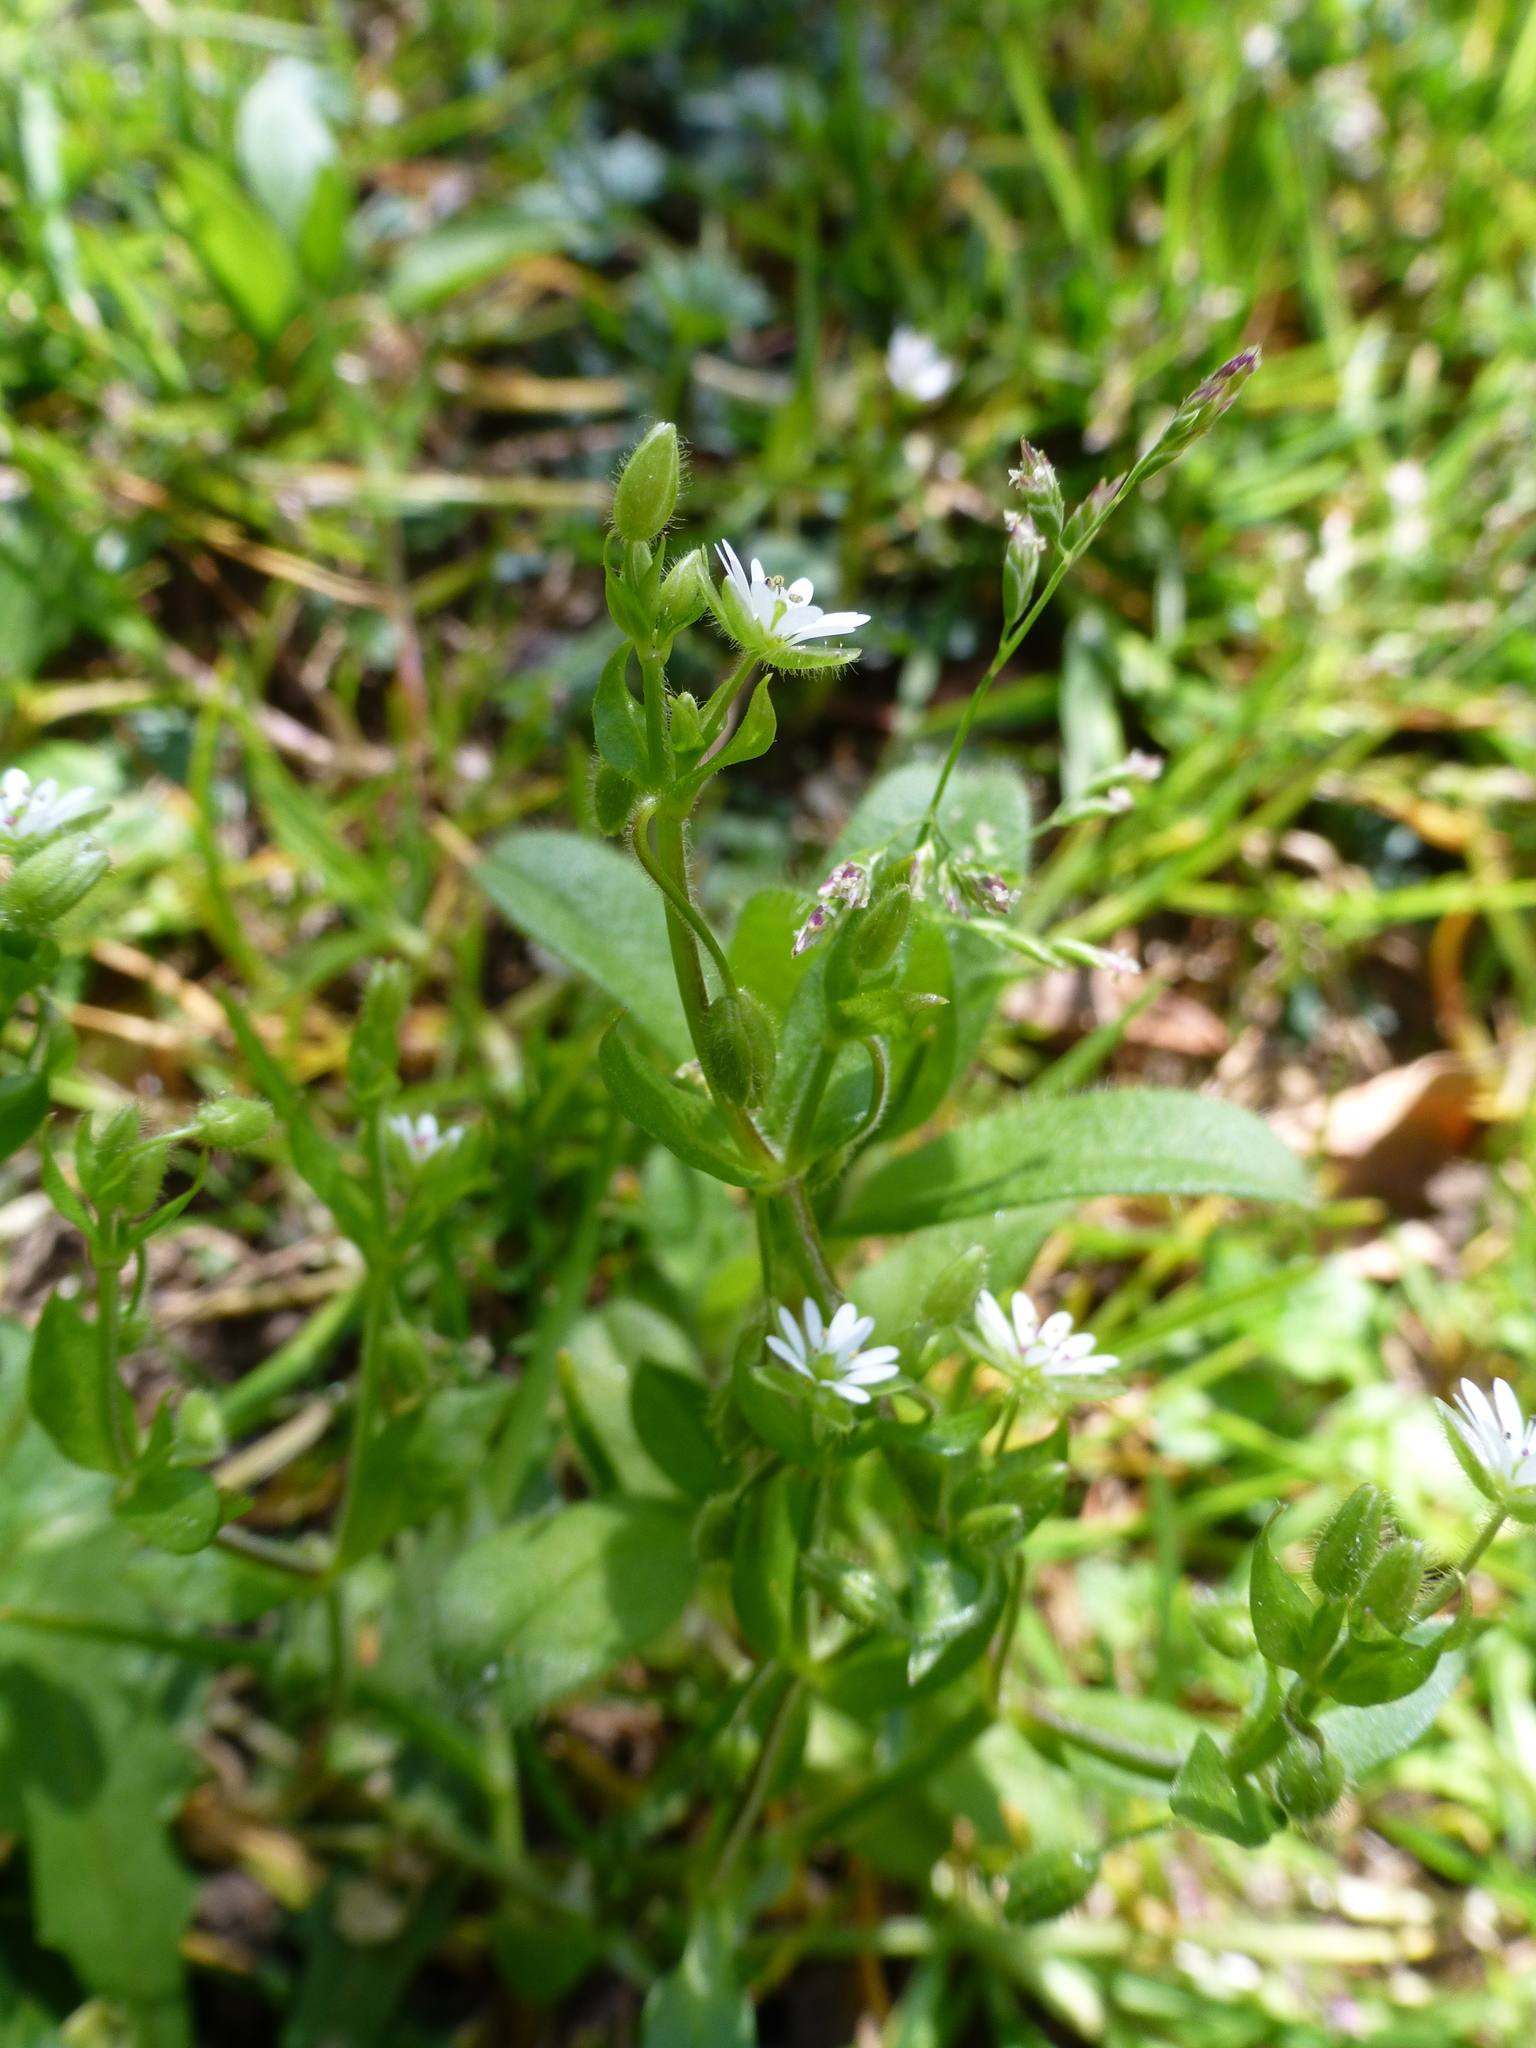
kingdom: Plantae
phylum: Tracheophyta
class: Magnoliopsida
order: Caryophyllales
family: Caryophyllaceae
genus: Stellaria
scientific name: Stellaria media
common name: Common chickweed
